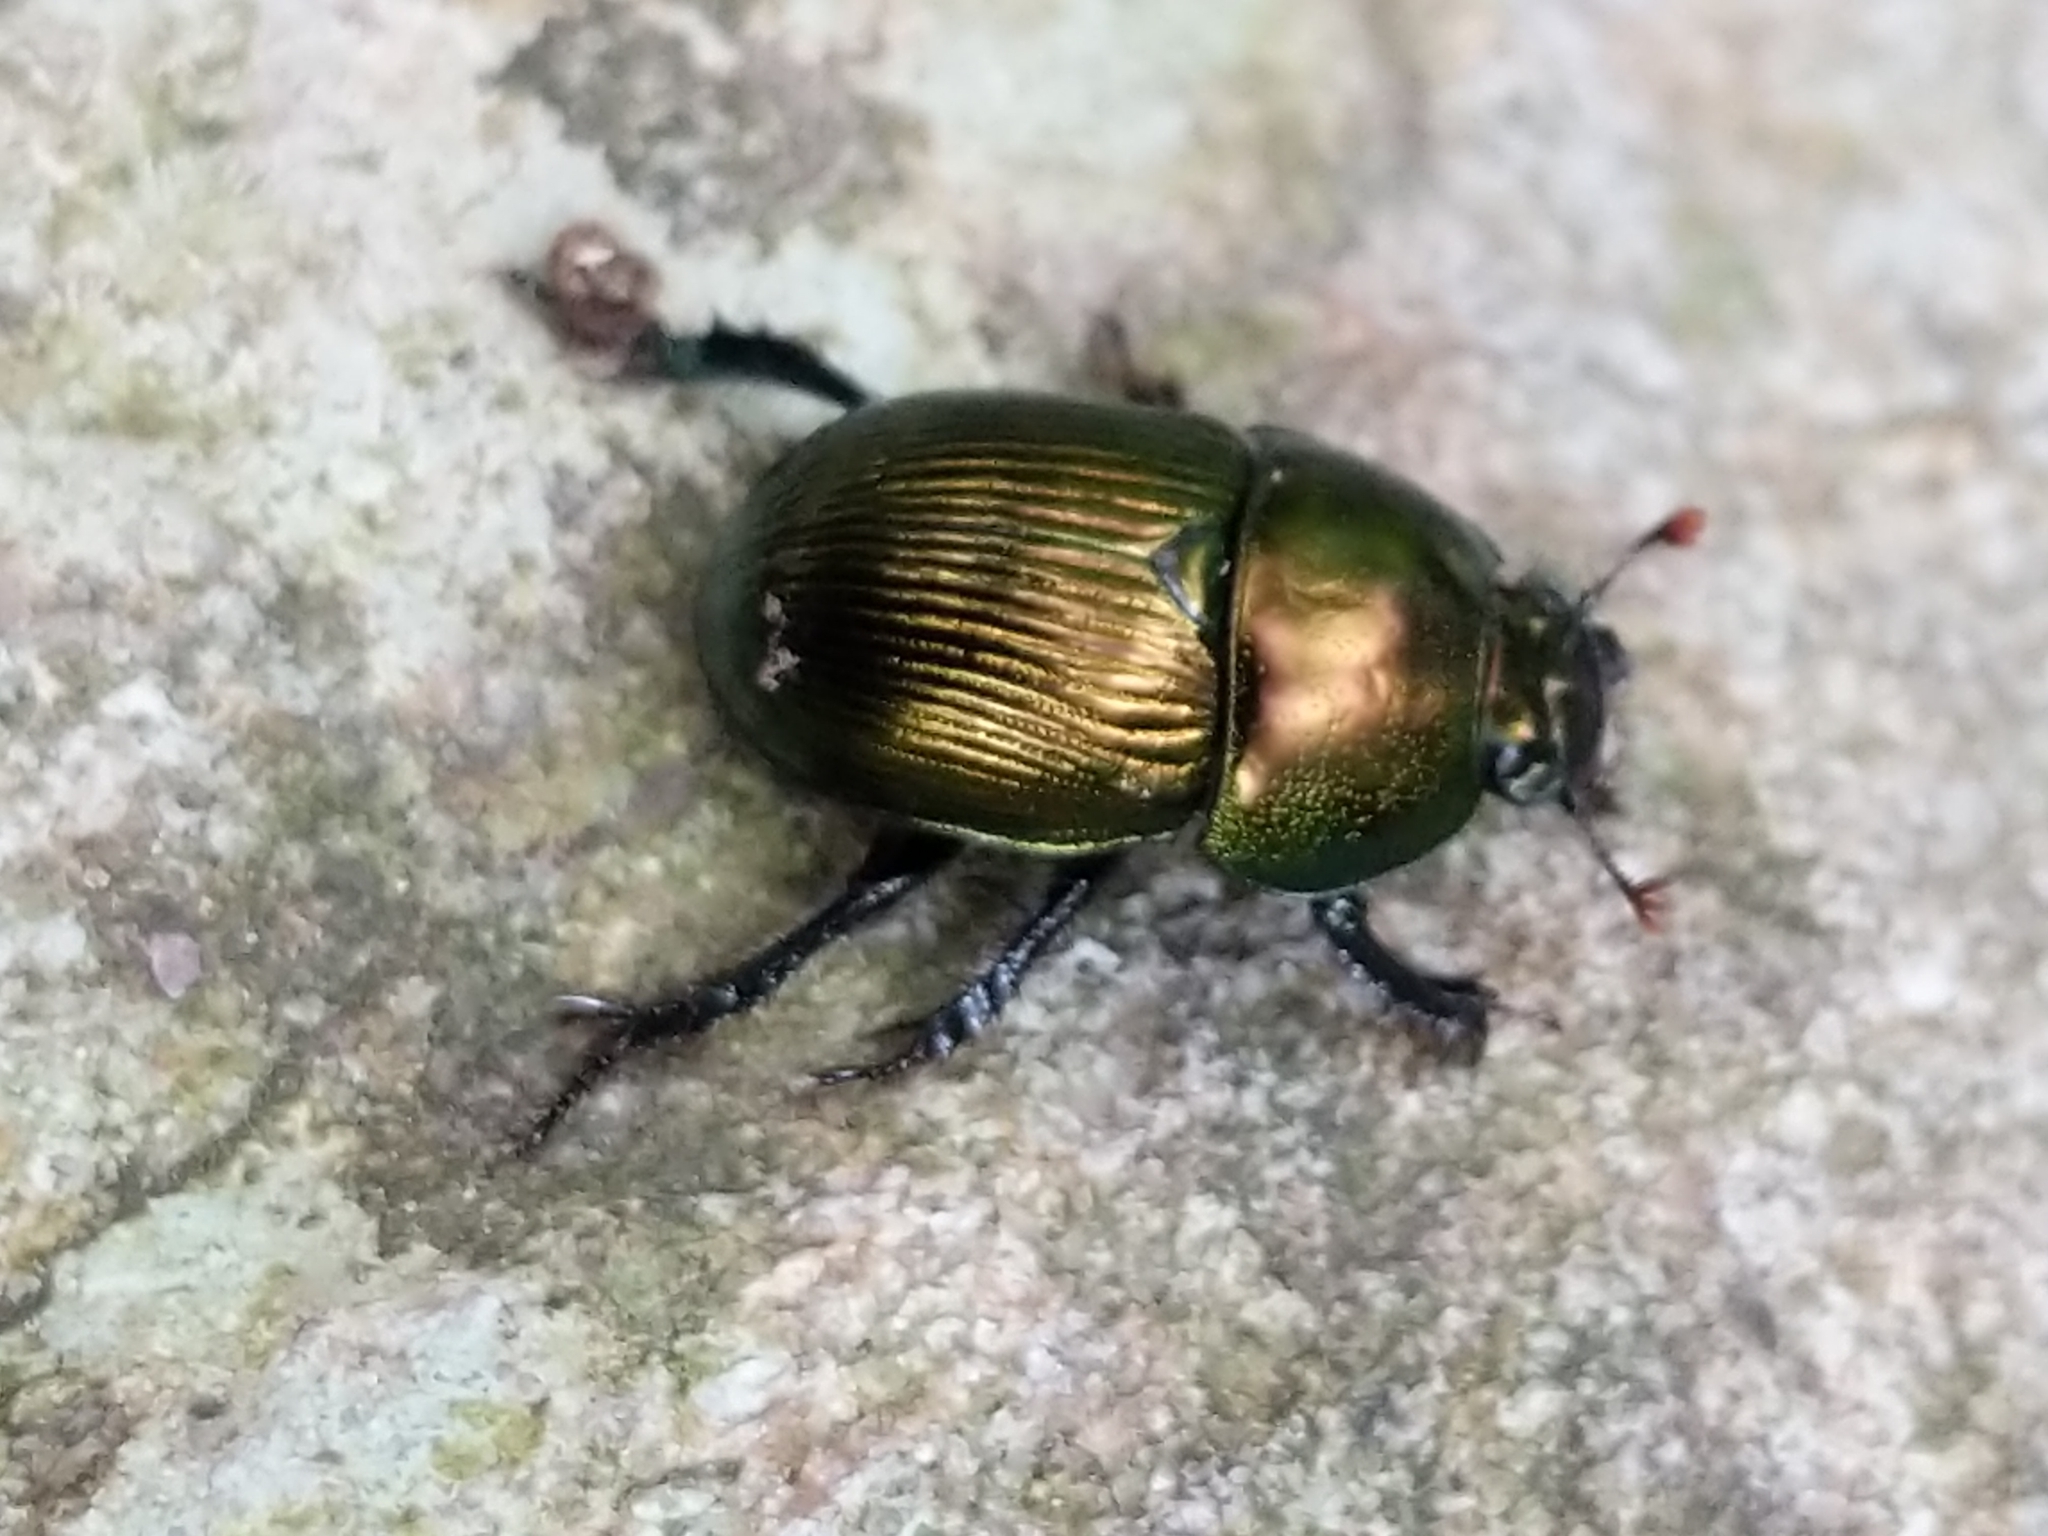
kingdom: Animalia
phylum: Arthropoda
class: Insecta
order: Coleoptera
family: Geotrupidae
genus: Geotrupes
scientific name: Geotrupes splendidus
